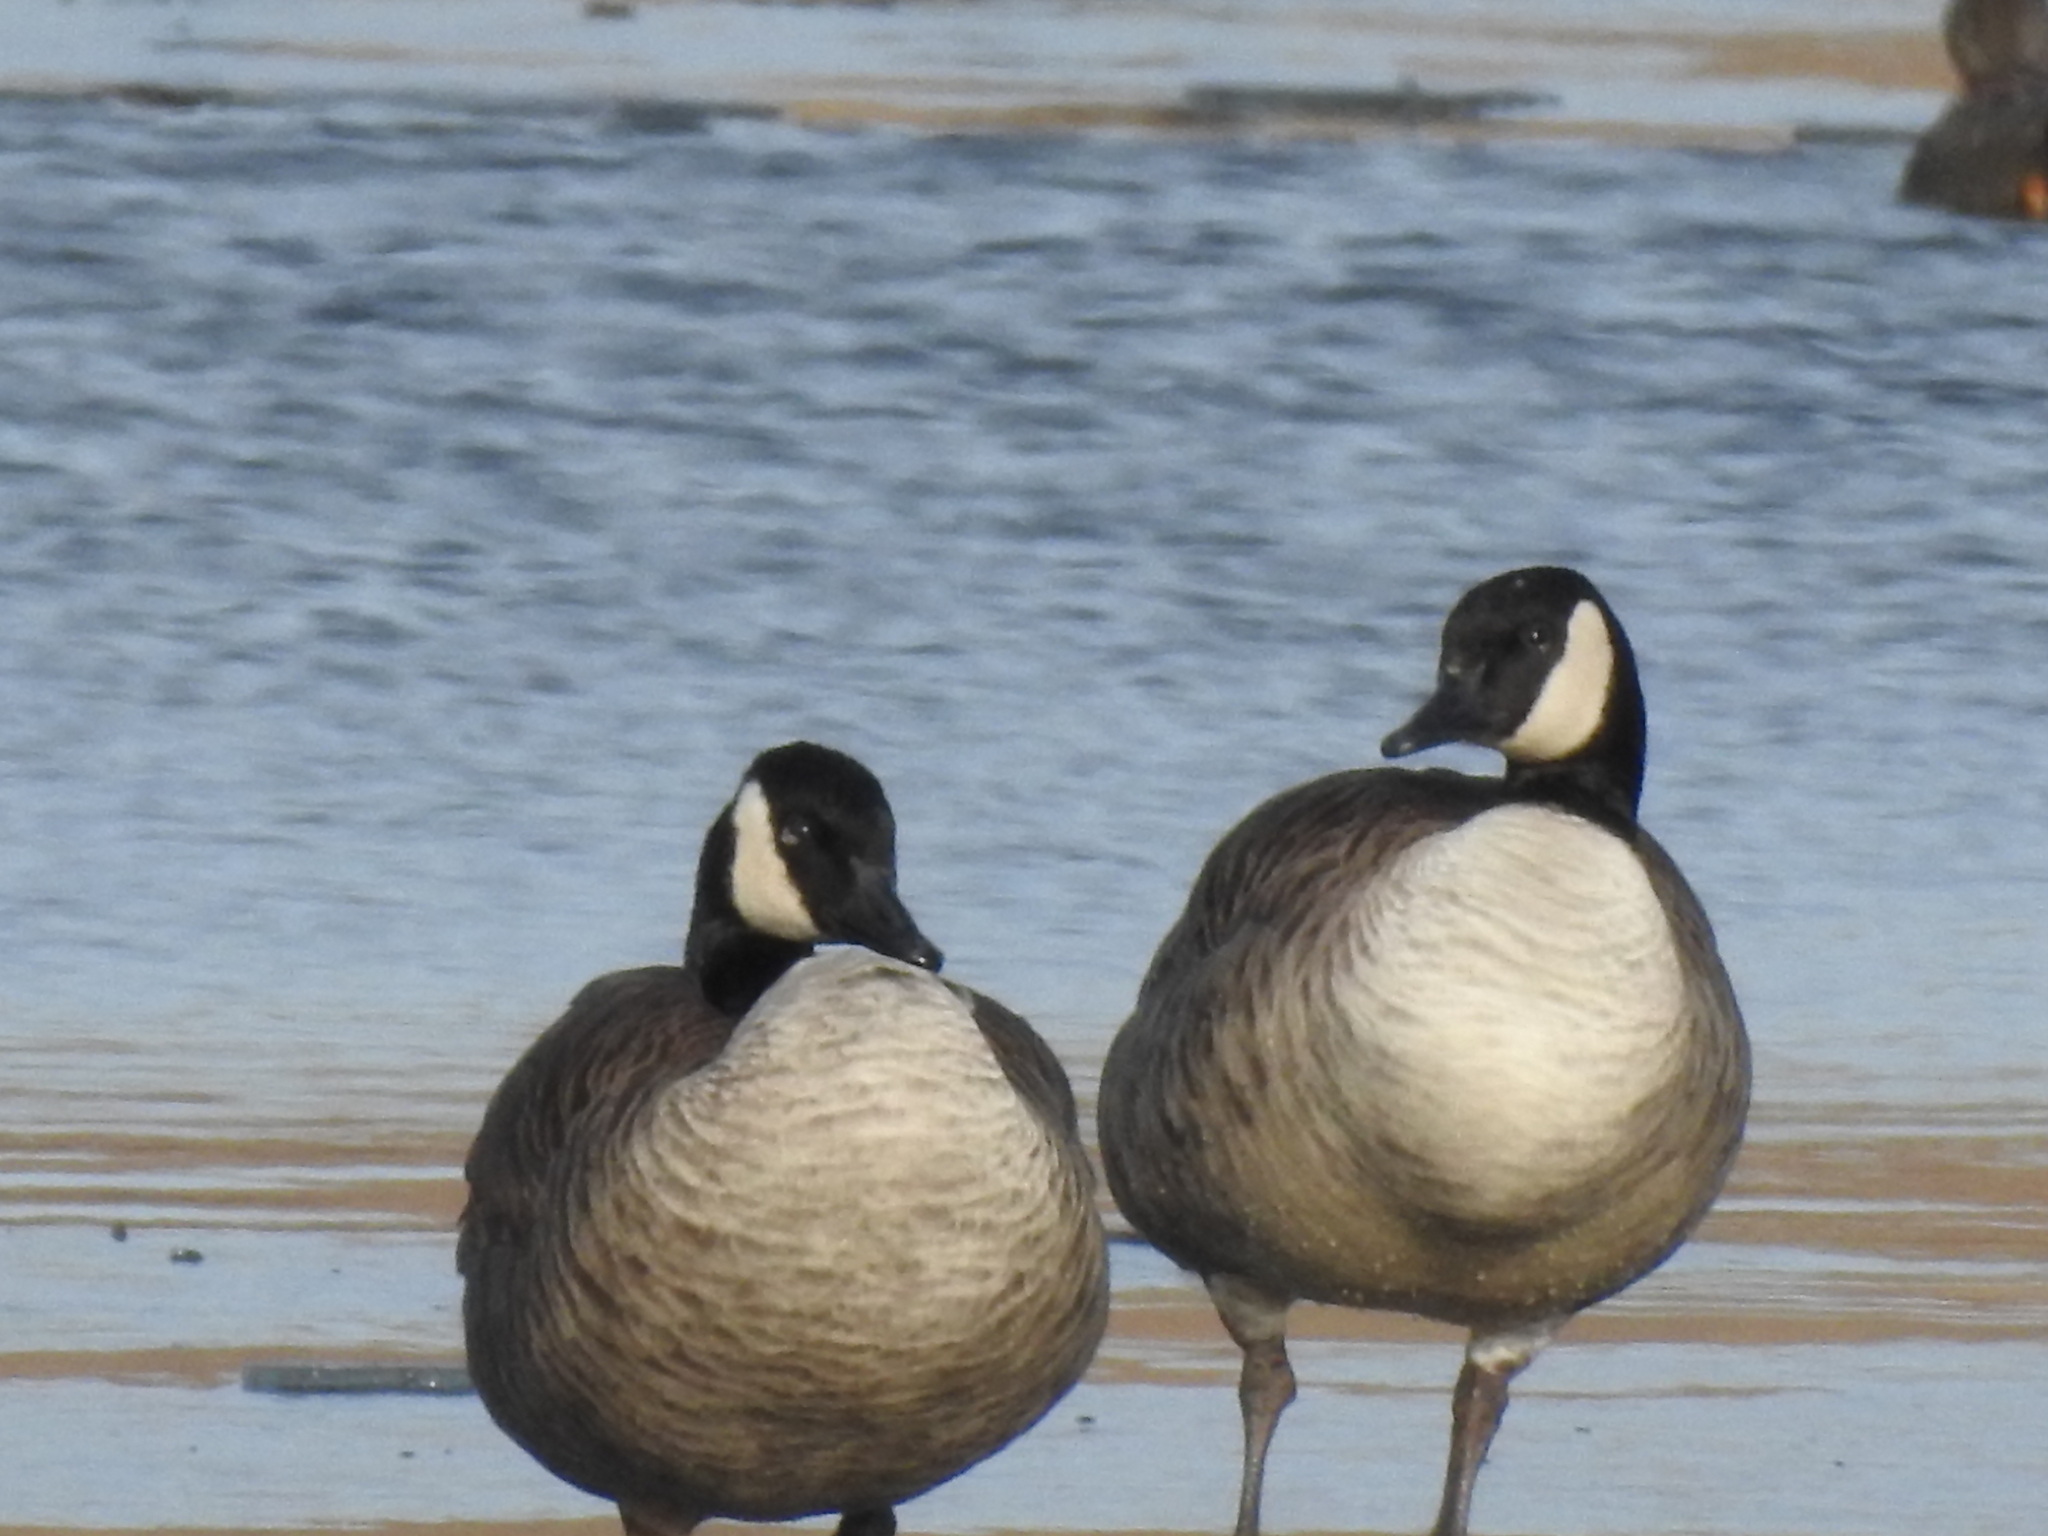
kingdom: Animalia
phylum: Chordata
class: Aves
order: Anseriformes
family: Anatidae
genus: Branta
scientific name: Branta canadensis
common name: Canada goose
